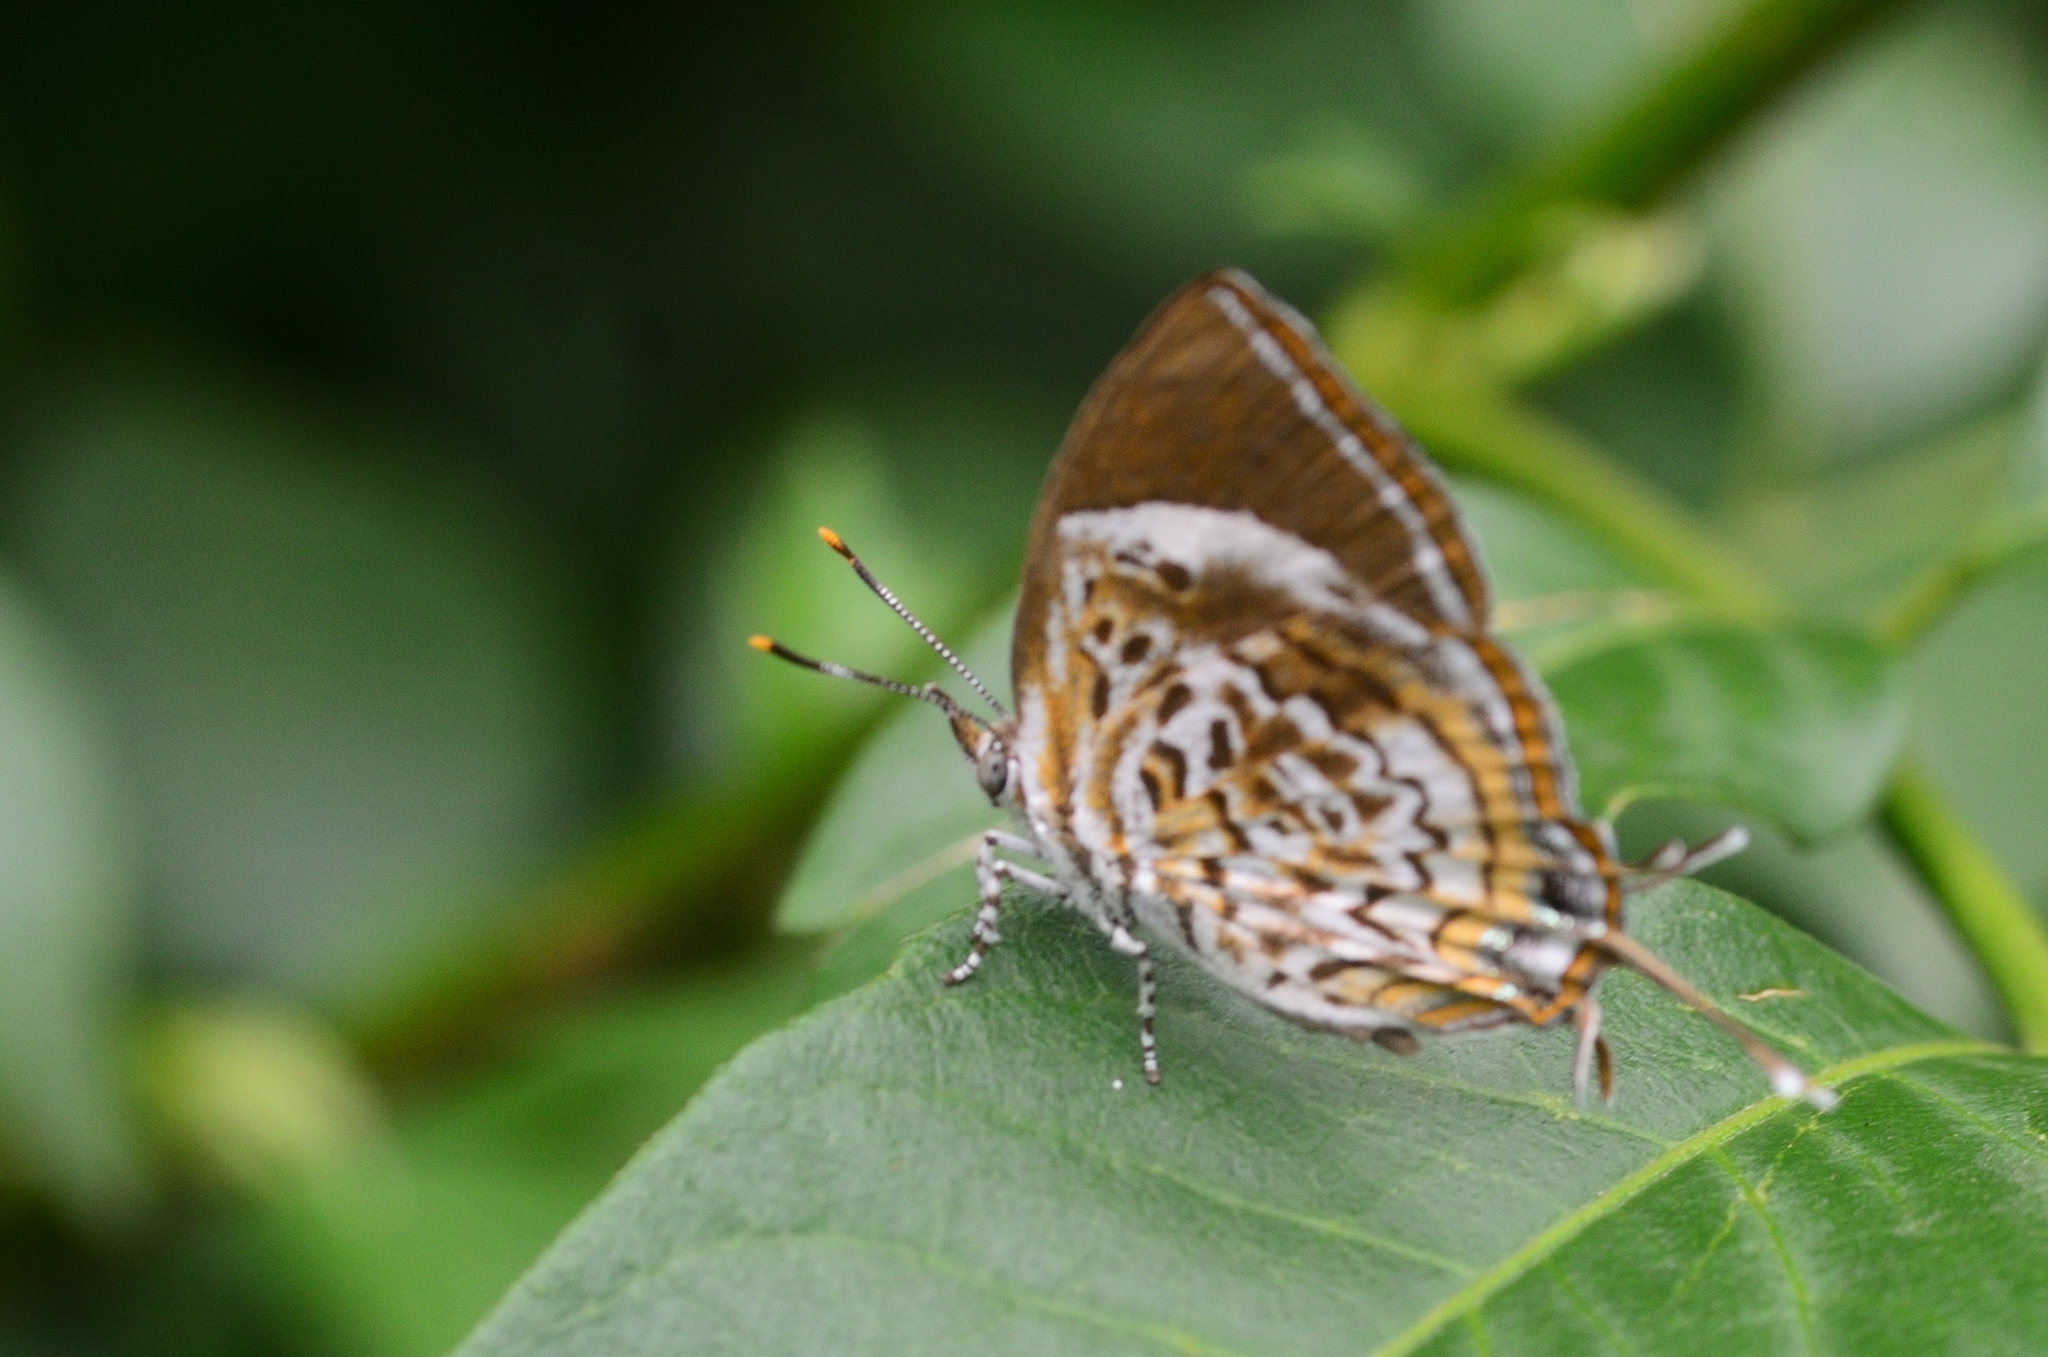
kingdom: Animalia
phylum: Arthropoda
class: Insecta
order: Lepidoptera
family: Lycaenidae
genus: Rathinda
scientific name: Rathinda amor
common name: Monkey puzzle
